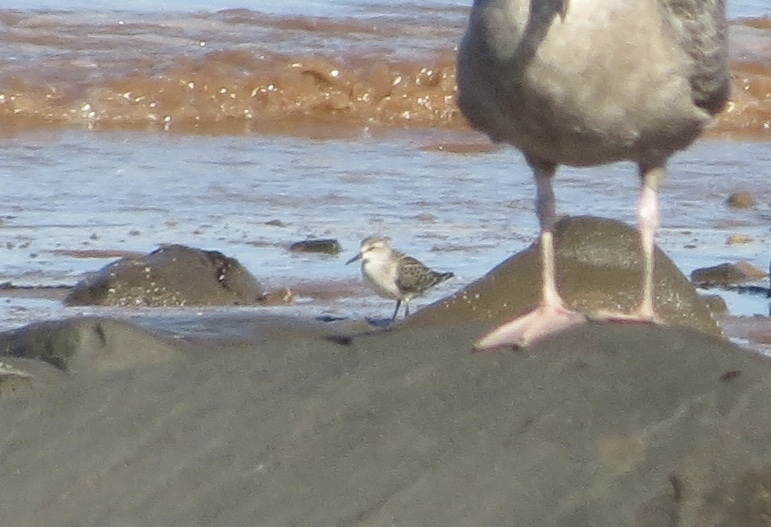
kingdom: Animalia
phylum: Chordata
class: Aves
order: Charadriiformes
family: Scolopacidae
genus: Calidris
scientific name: Calidris pusilla
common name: Semipalmated sandpiper
